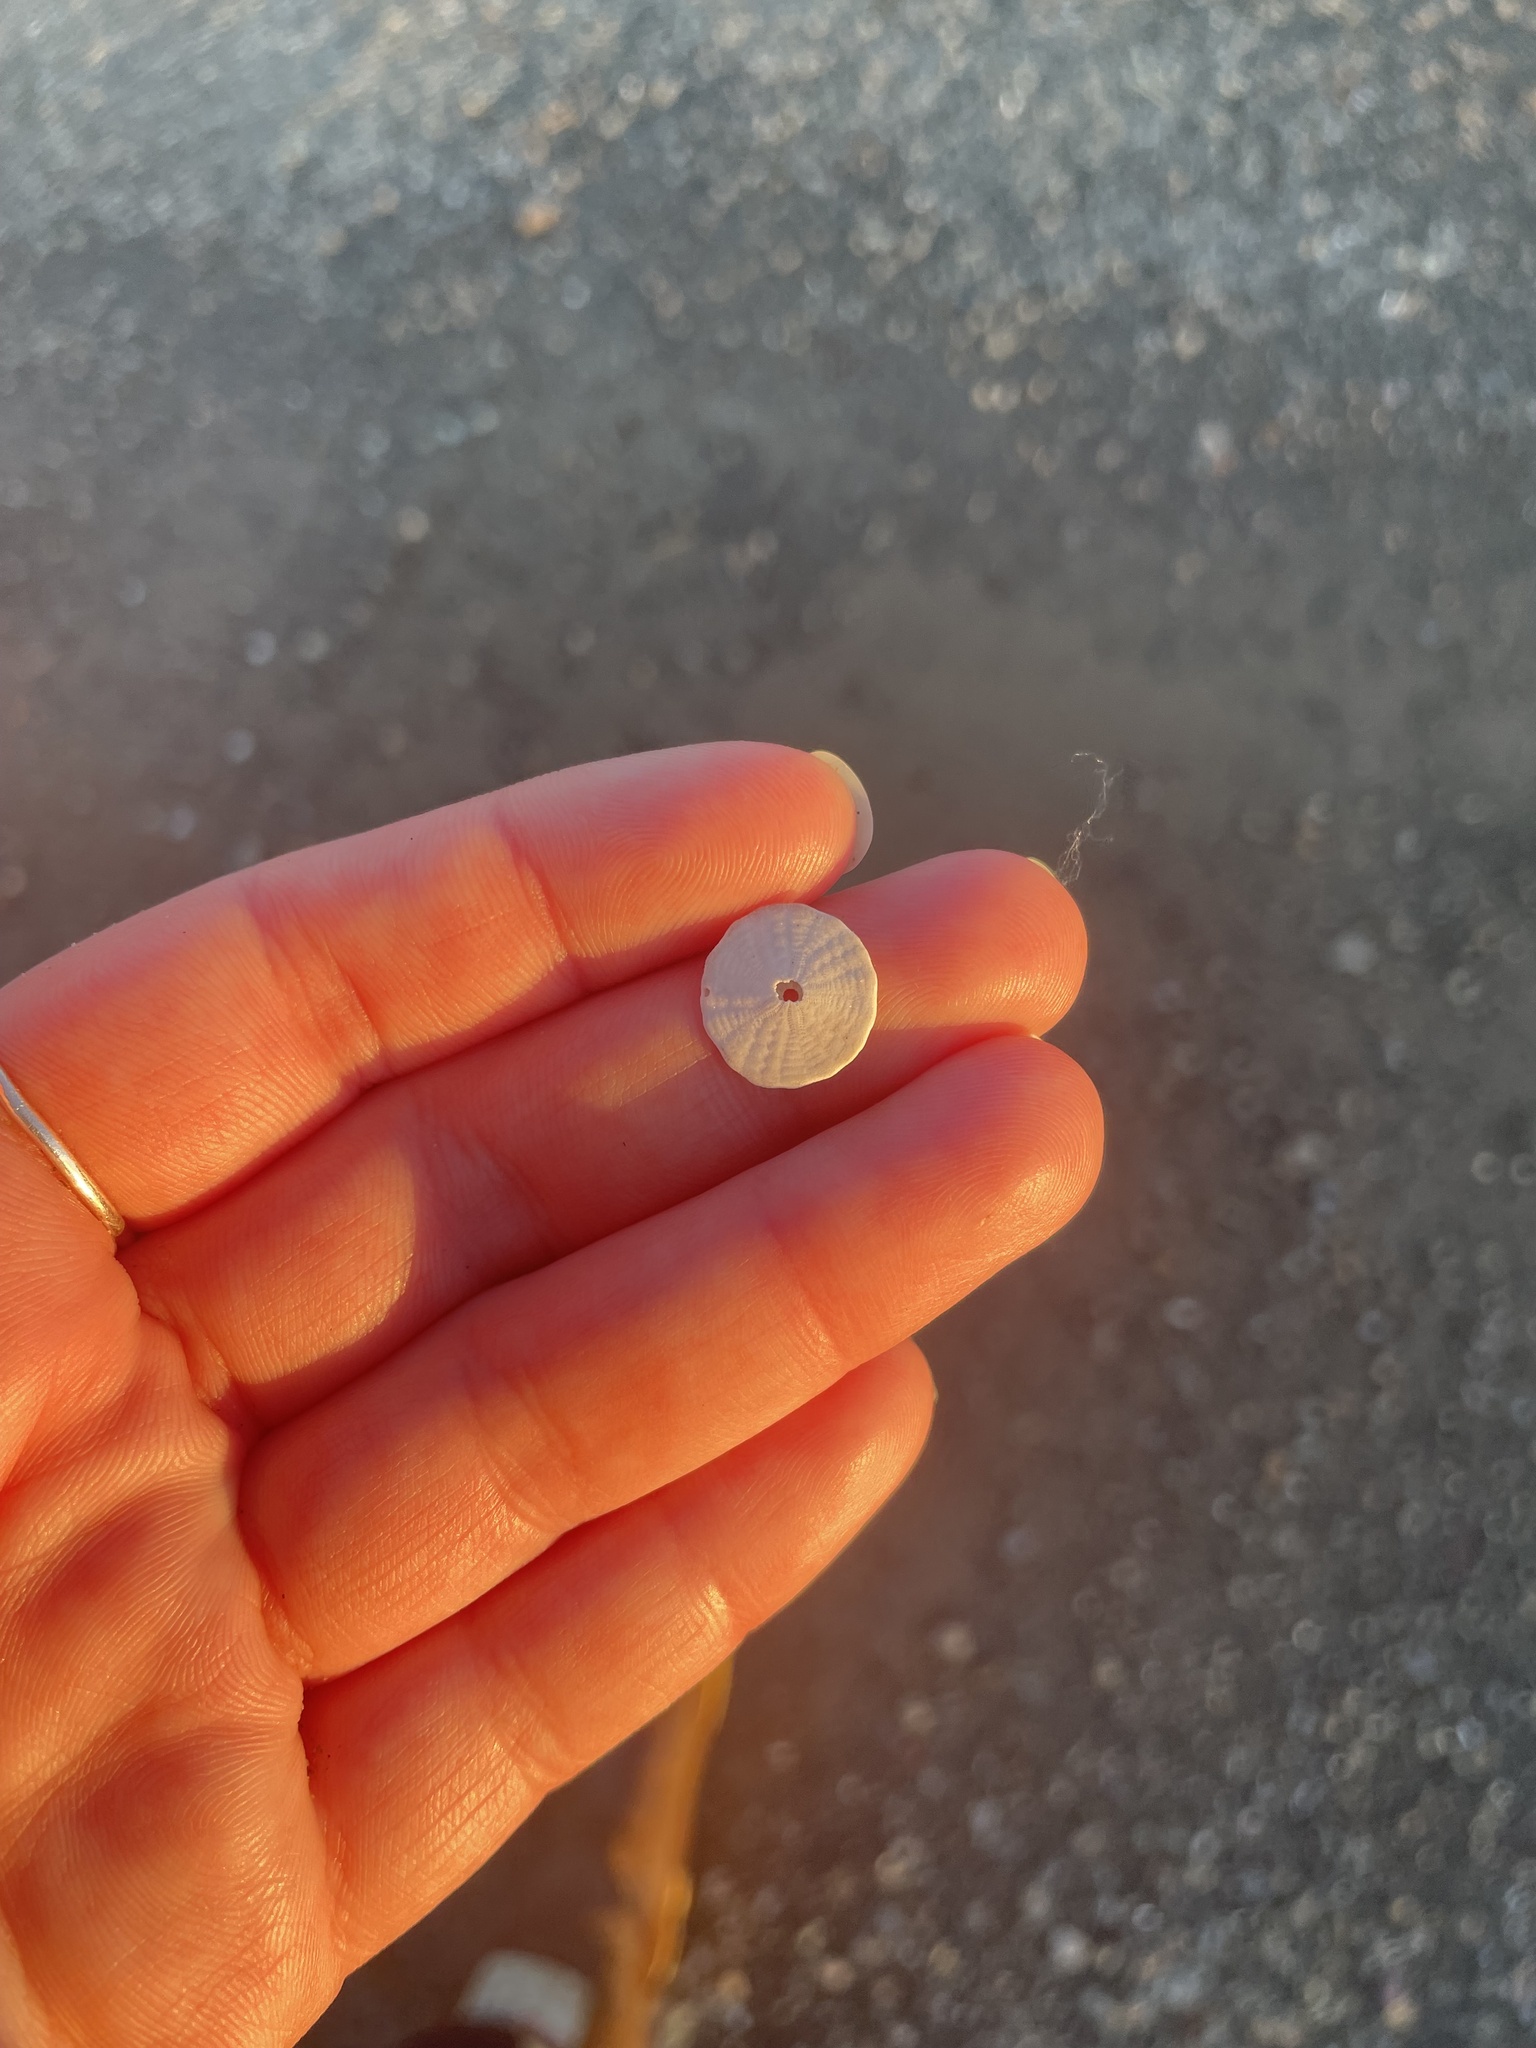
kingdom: Animalia
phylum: Echinodermata
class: Echinoidea
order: Echinolampadacea
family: Echinarachniidae
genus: Echinarachnius
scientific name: Echinarachnius parma
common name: Common sand dollar
